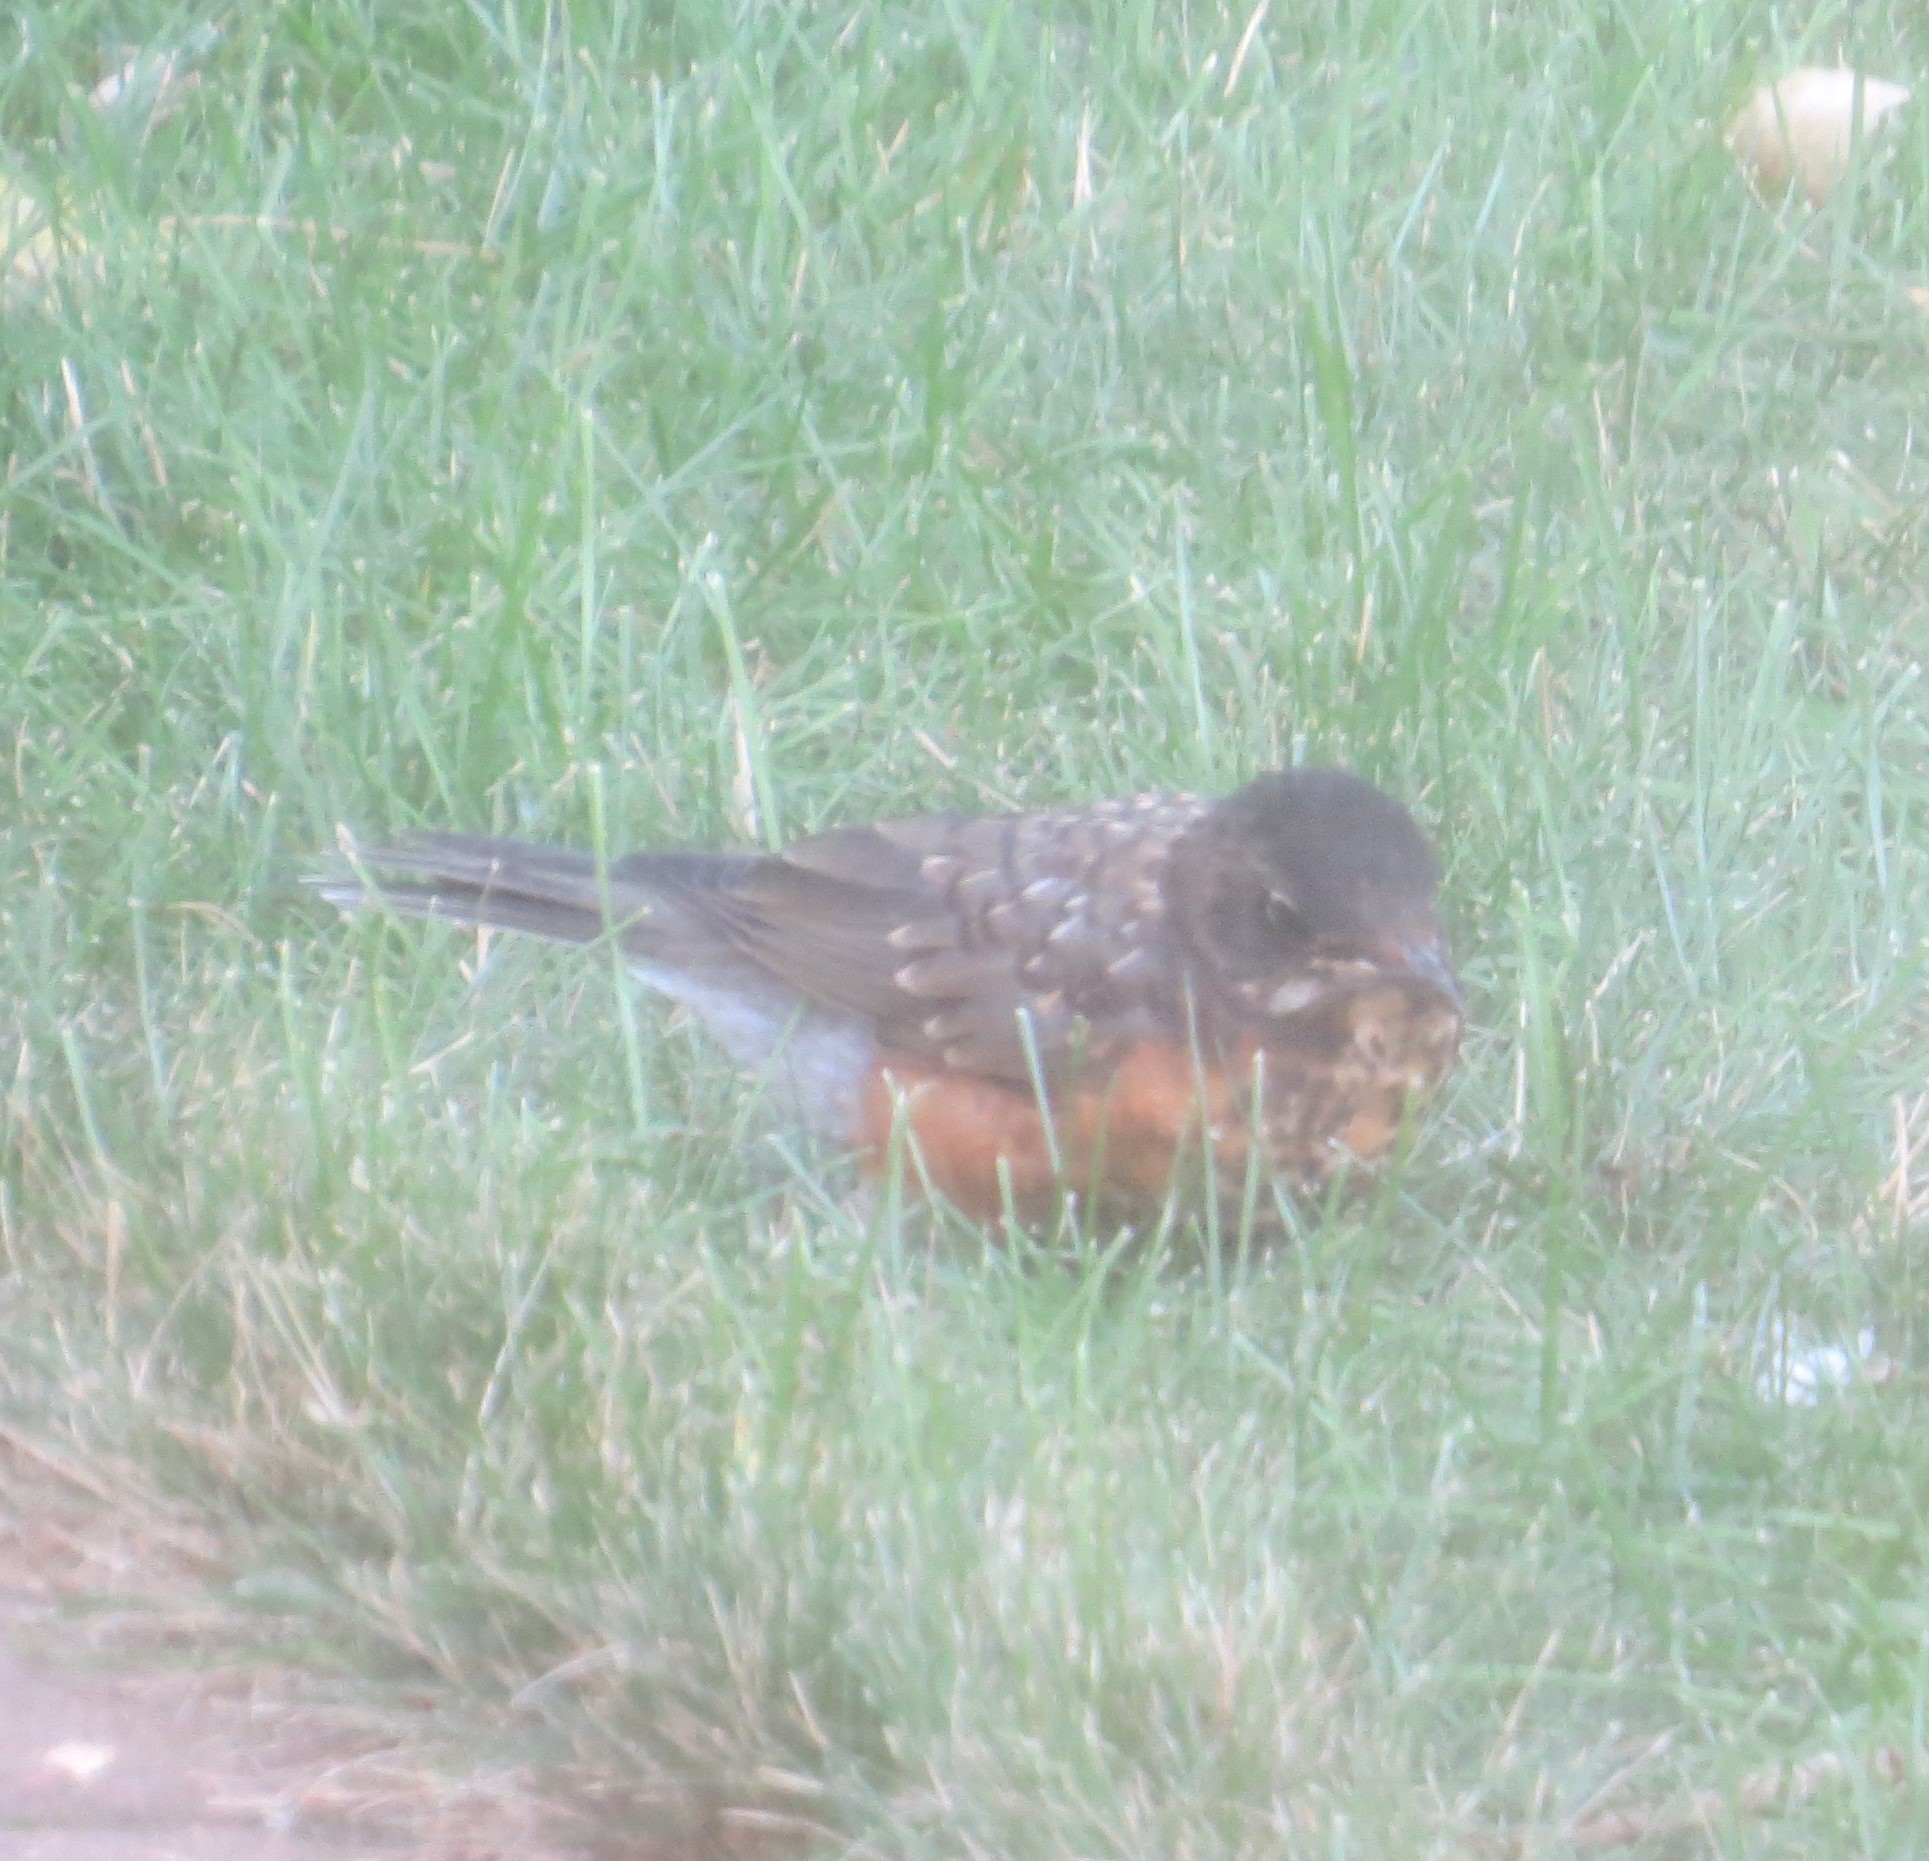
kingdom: Animalia
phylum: Chordata
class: Aves
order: Passeriformes
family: Turdidae
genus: Turdus
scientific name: Turdus migratorius
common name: American robin
